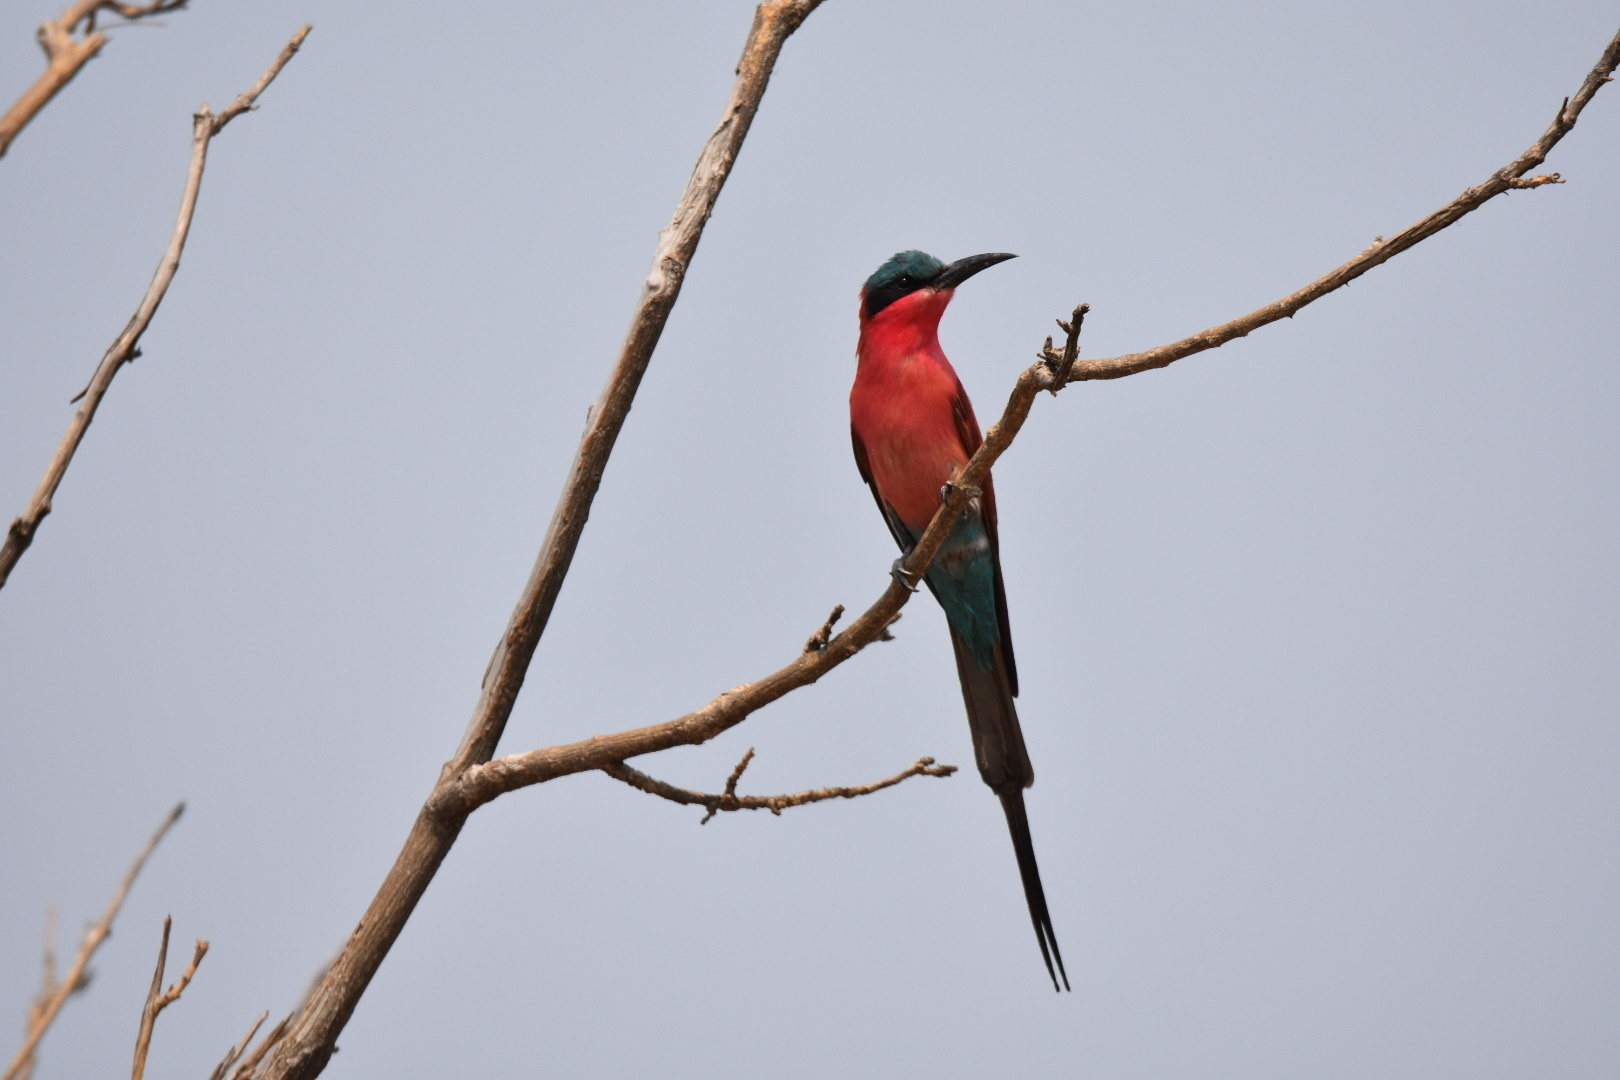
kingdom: Animalia
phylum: Chordata
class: Aves
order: Coraciiformes
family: Meropidae
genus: Merops
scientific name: Merops nubicoides
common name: Southern carmine bee-eater
